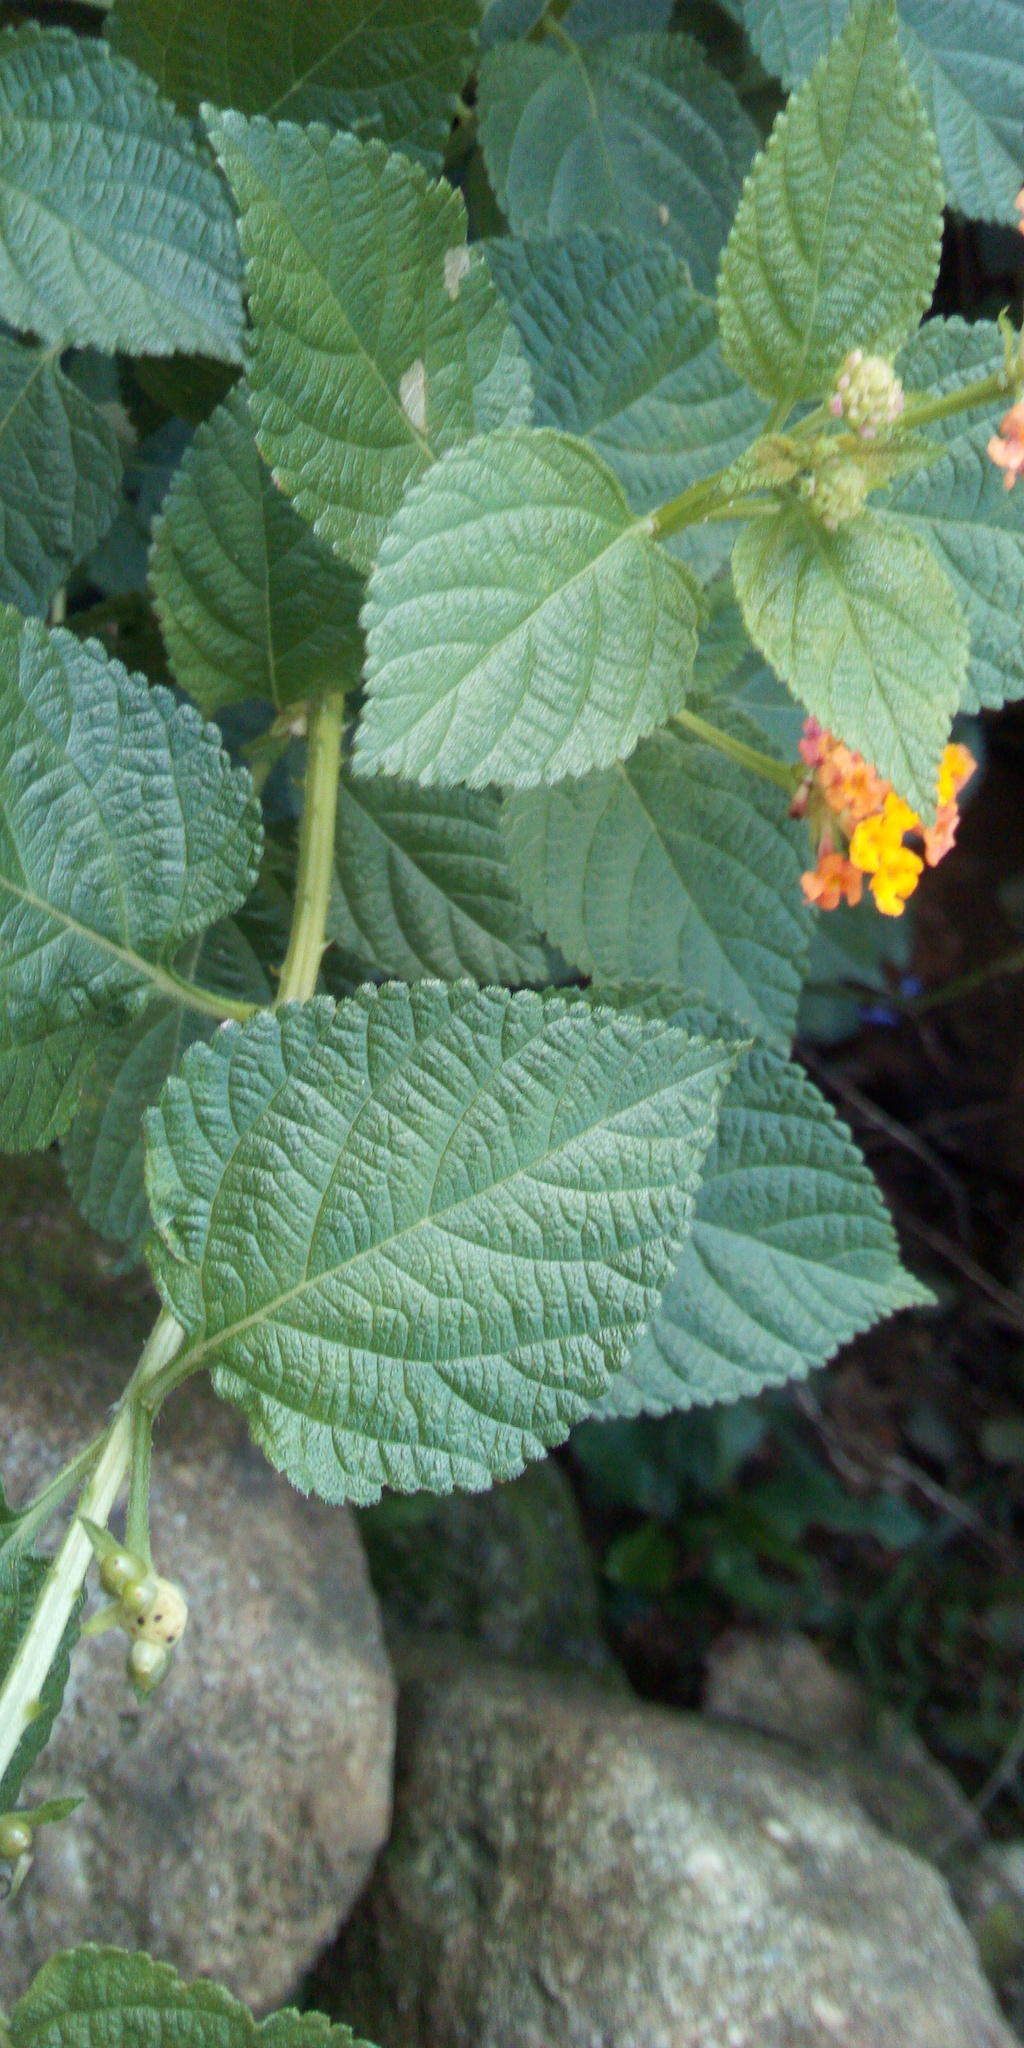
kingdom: Plantae
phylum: Tracheophyta
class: Magnoliopsida
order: Lamiales
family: Verbenaceae
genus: Lantana
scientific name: Lantana camara
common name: Lantana
